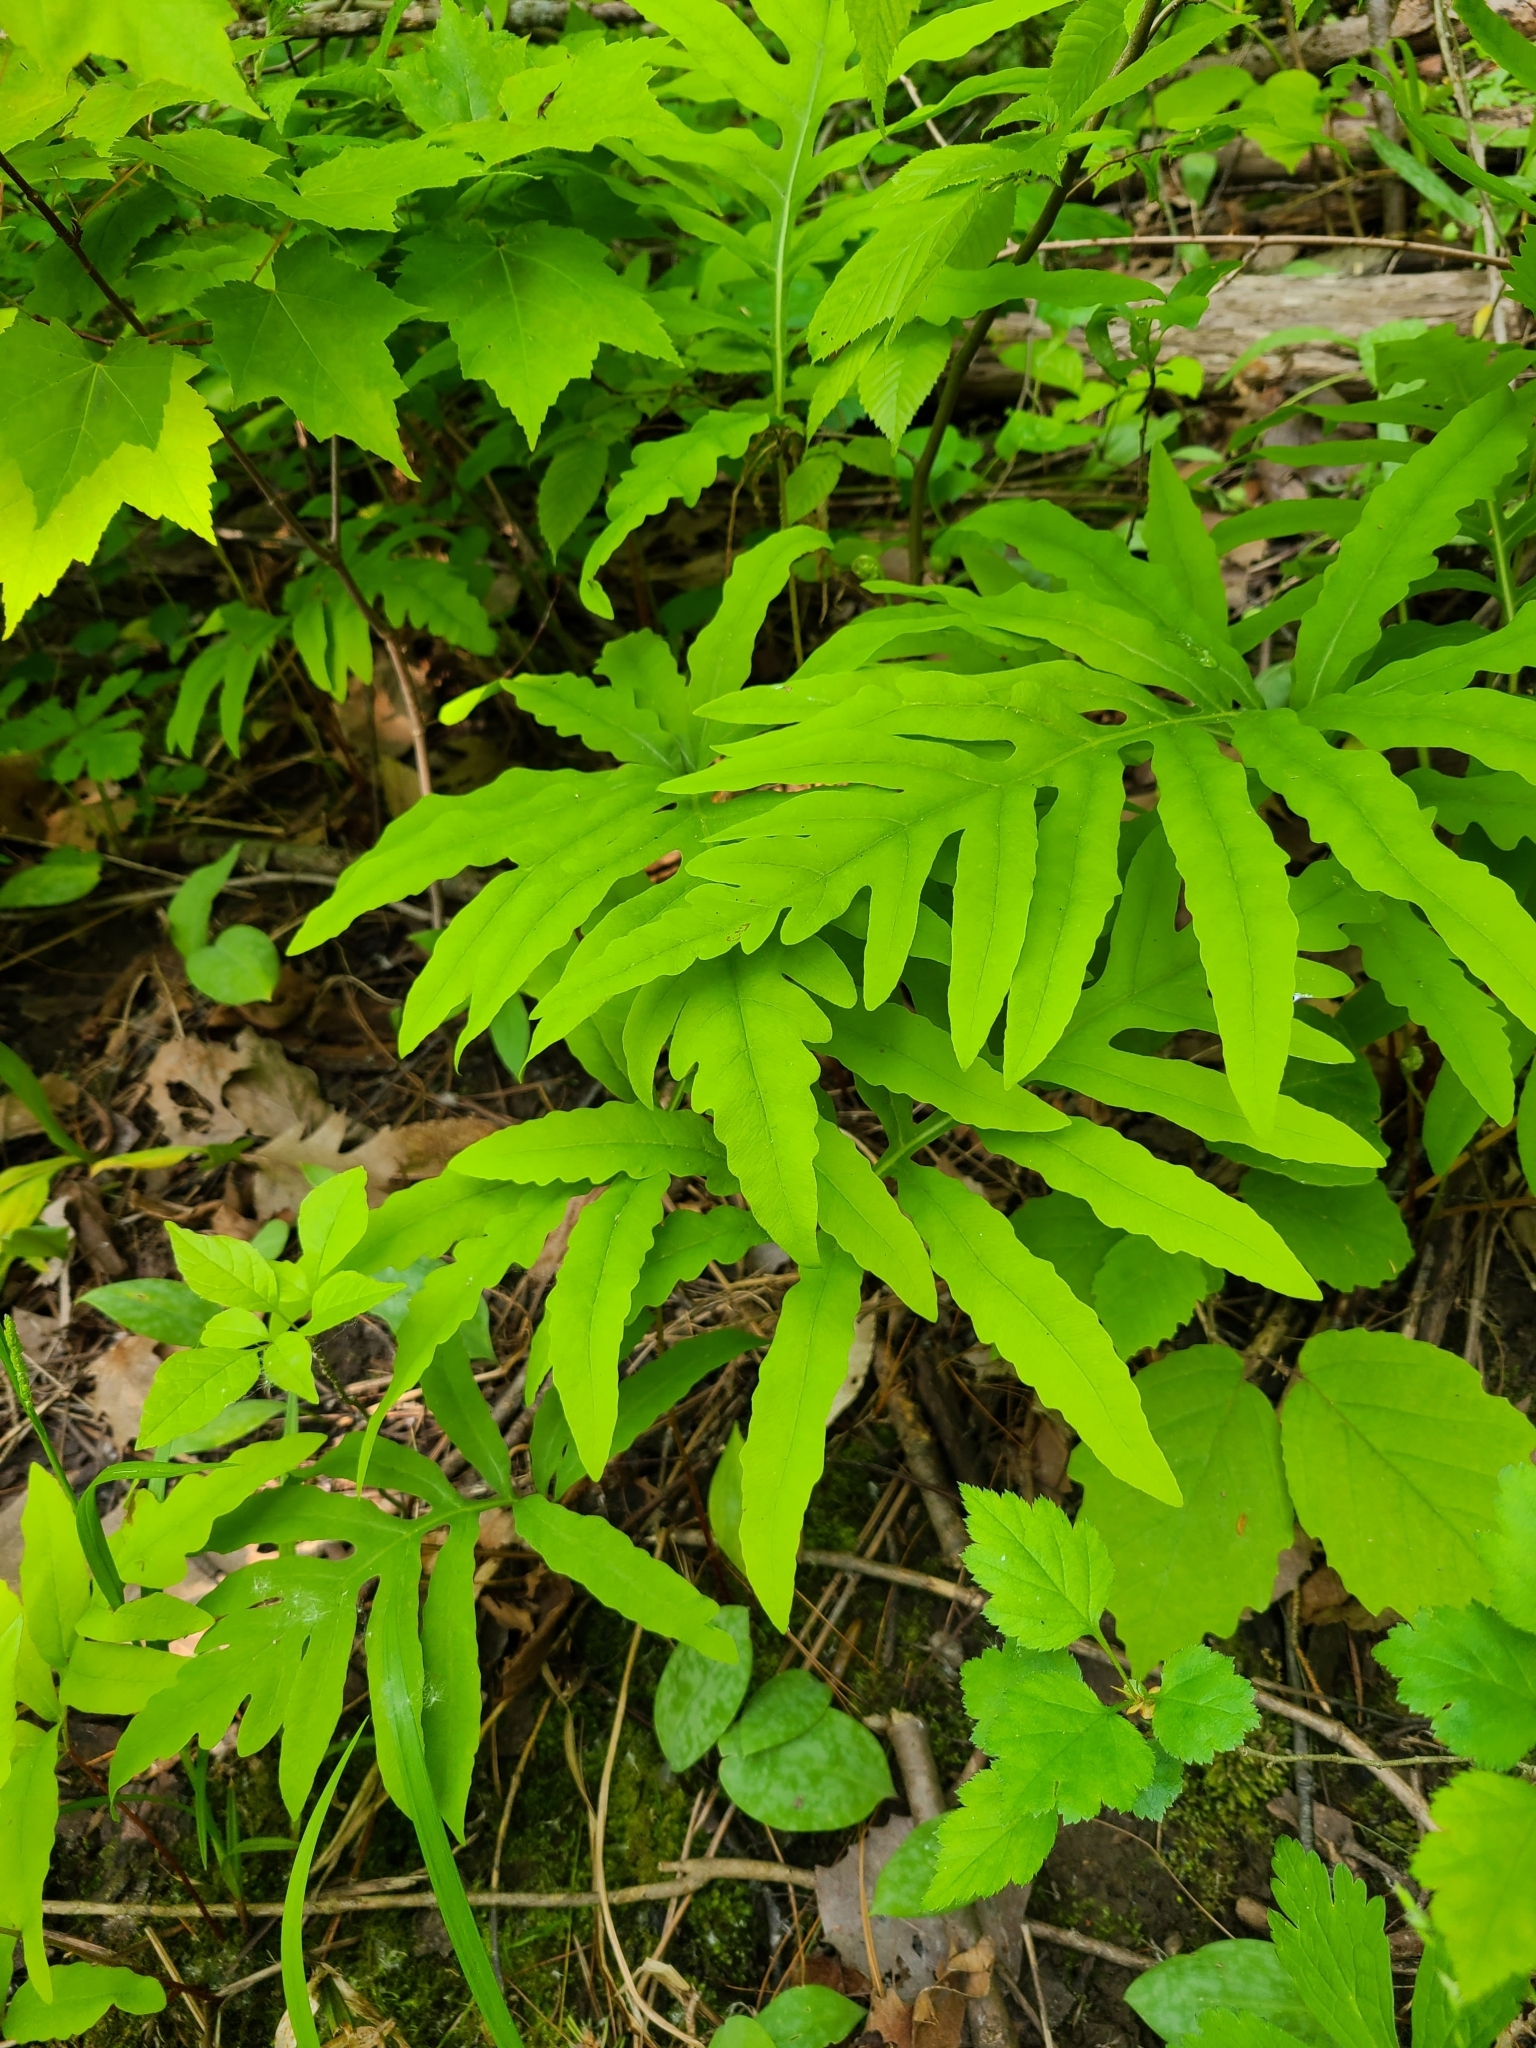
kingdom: Plantae
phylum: Tracheophyta
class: Polypodiopsida
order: Polypodiales
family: Onocleaceae
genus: Onoclea
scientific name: Onoclea sensibilis
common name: Sensitive fern
